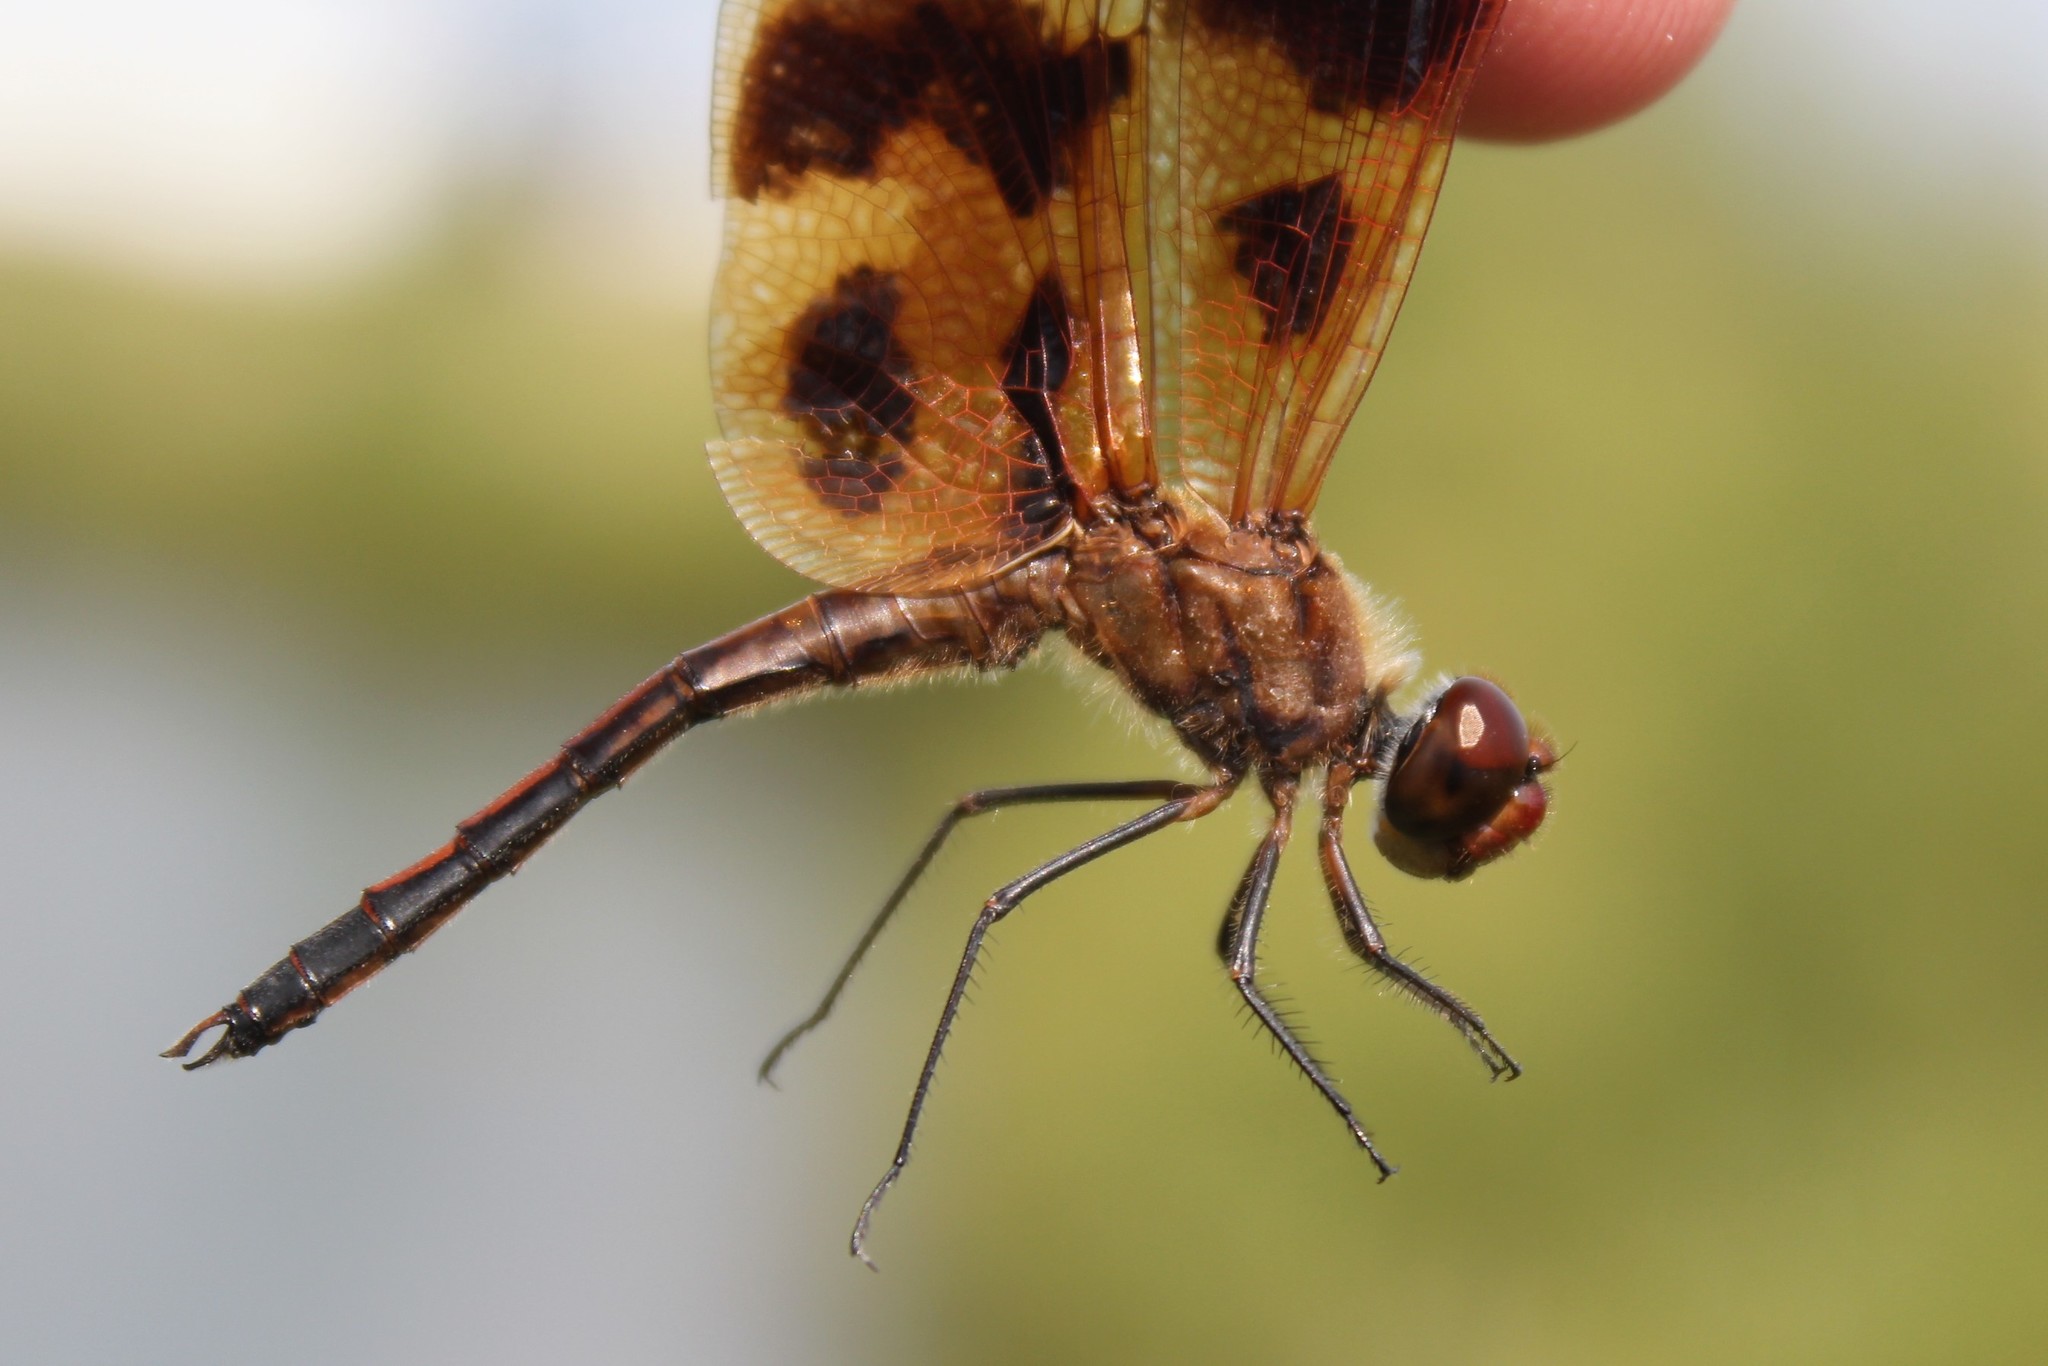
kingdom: Animalia
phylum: Arthropoda
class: Insecta
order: Odonata
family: Libellulidae
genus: Celithemis
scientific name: Celithemis eponina
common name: Halloween pennant
